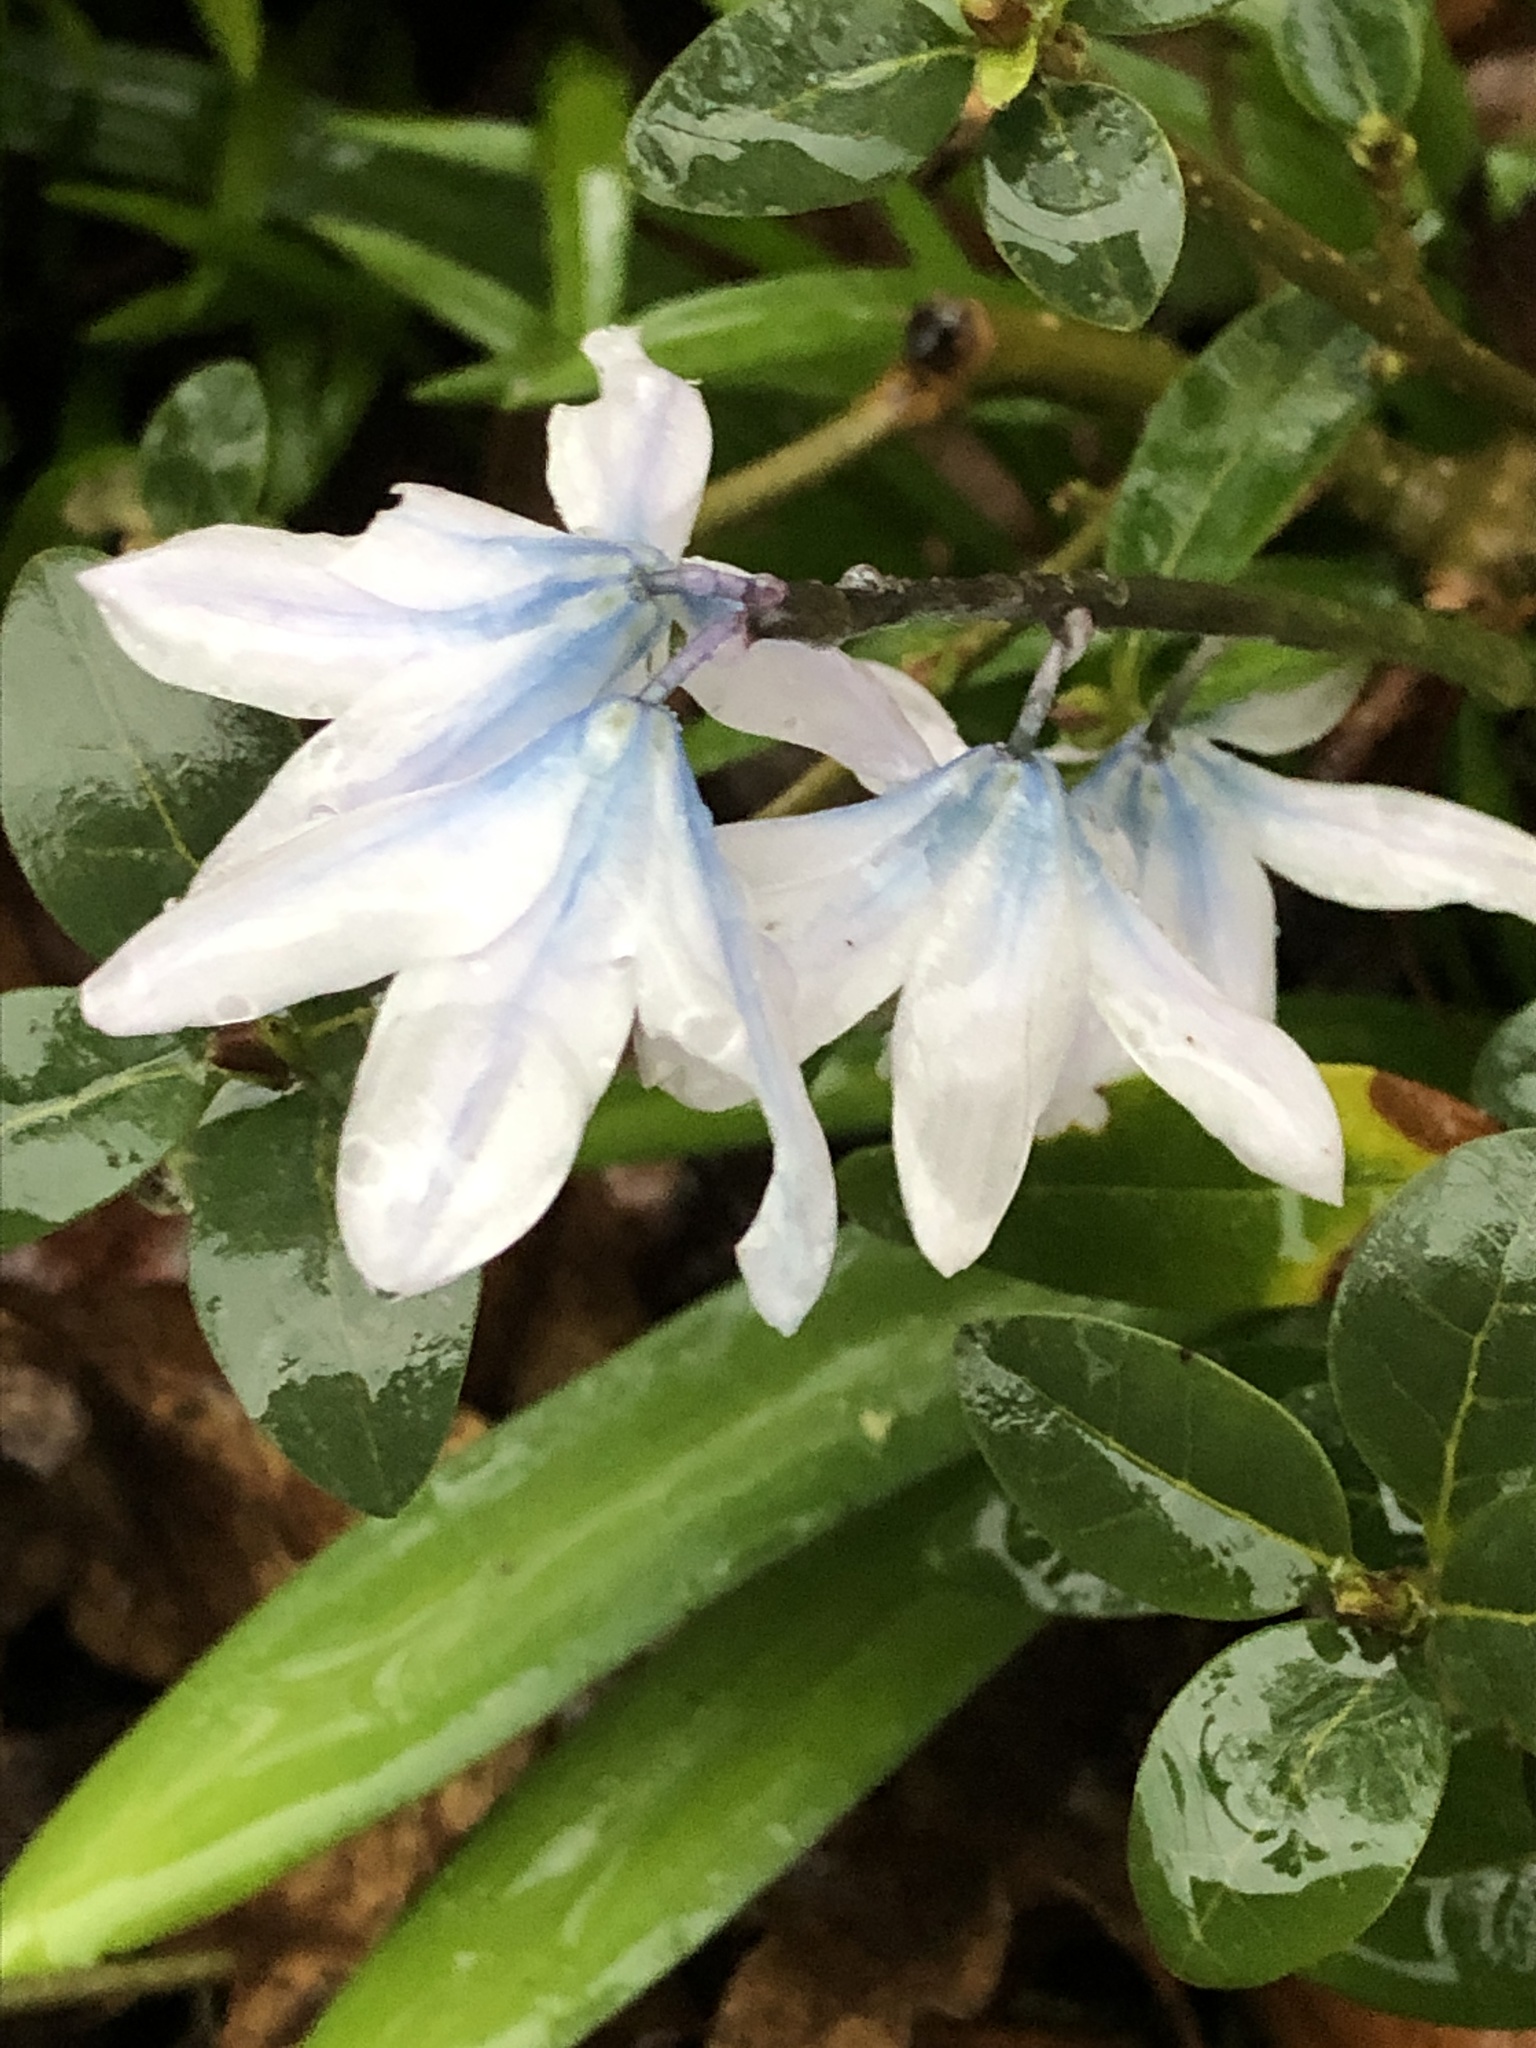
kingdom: Plantae
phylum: Tracheophyta
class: Liliopsida
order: Asparagales
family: Asparagaceae
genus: Scilla
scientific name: Scilla mischtschenkoana
